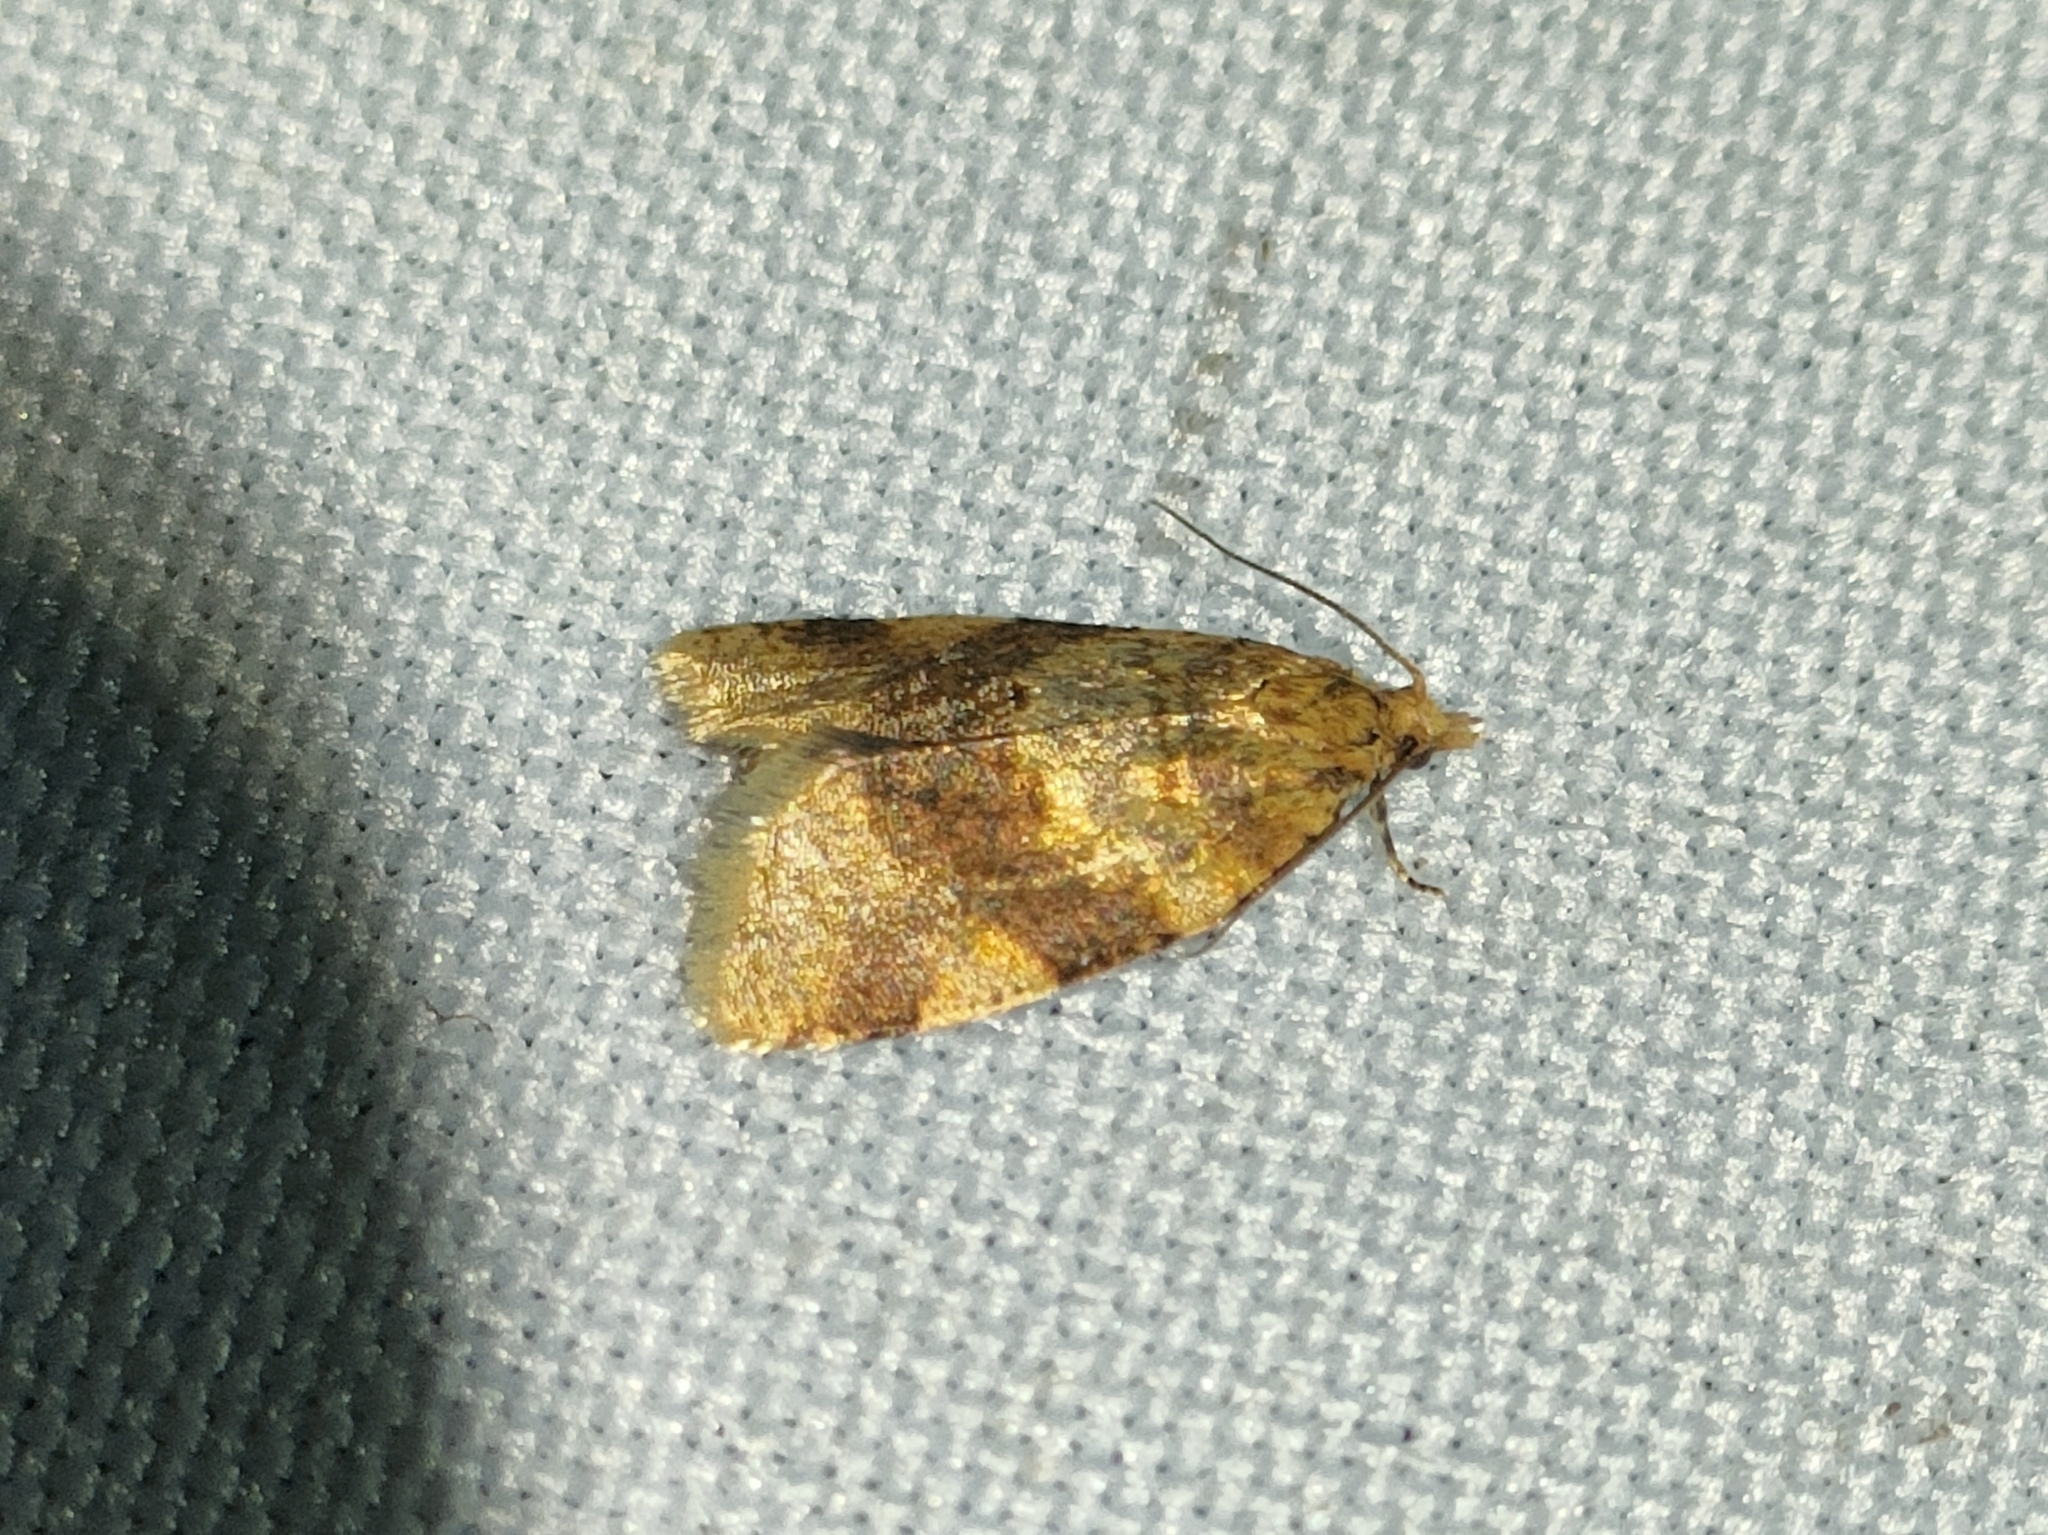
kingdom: Animalia
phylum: Arthropoda
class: Insecta
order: Lepidoptera
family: Tortricidae
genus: Epagoge
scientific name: Epagoge grotiana
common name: Brown-barred twist
